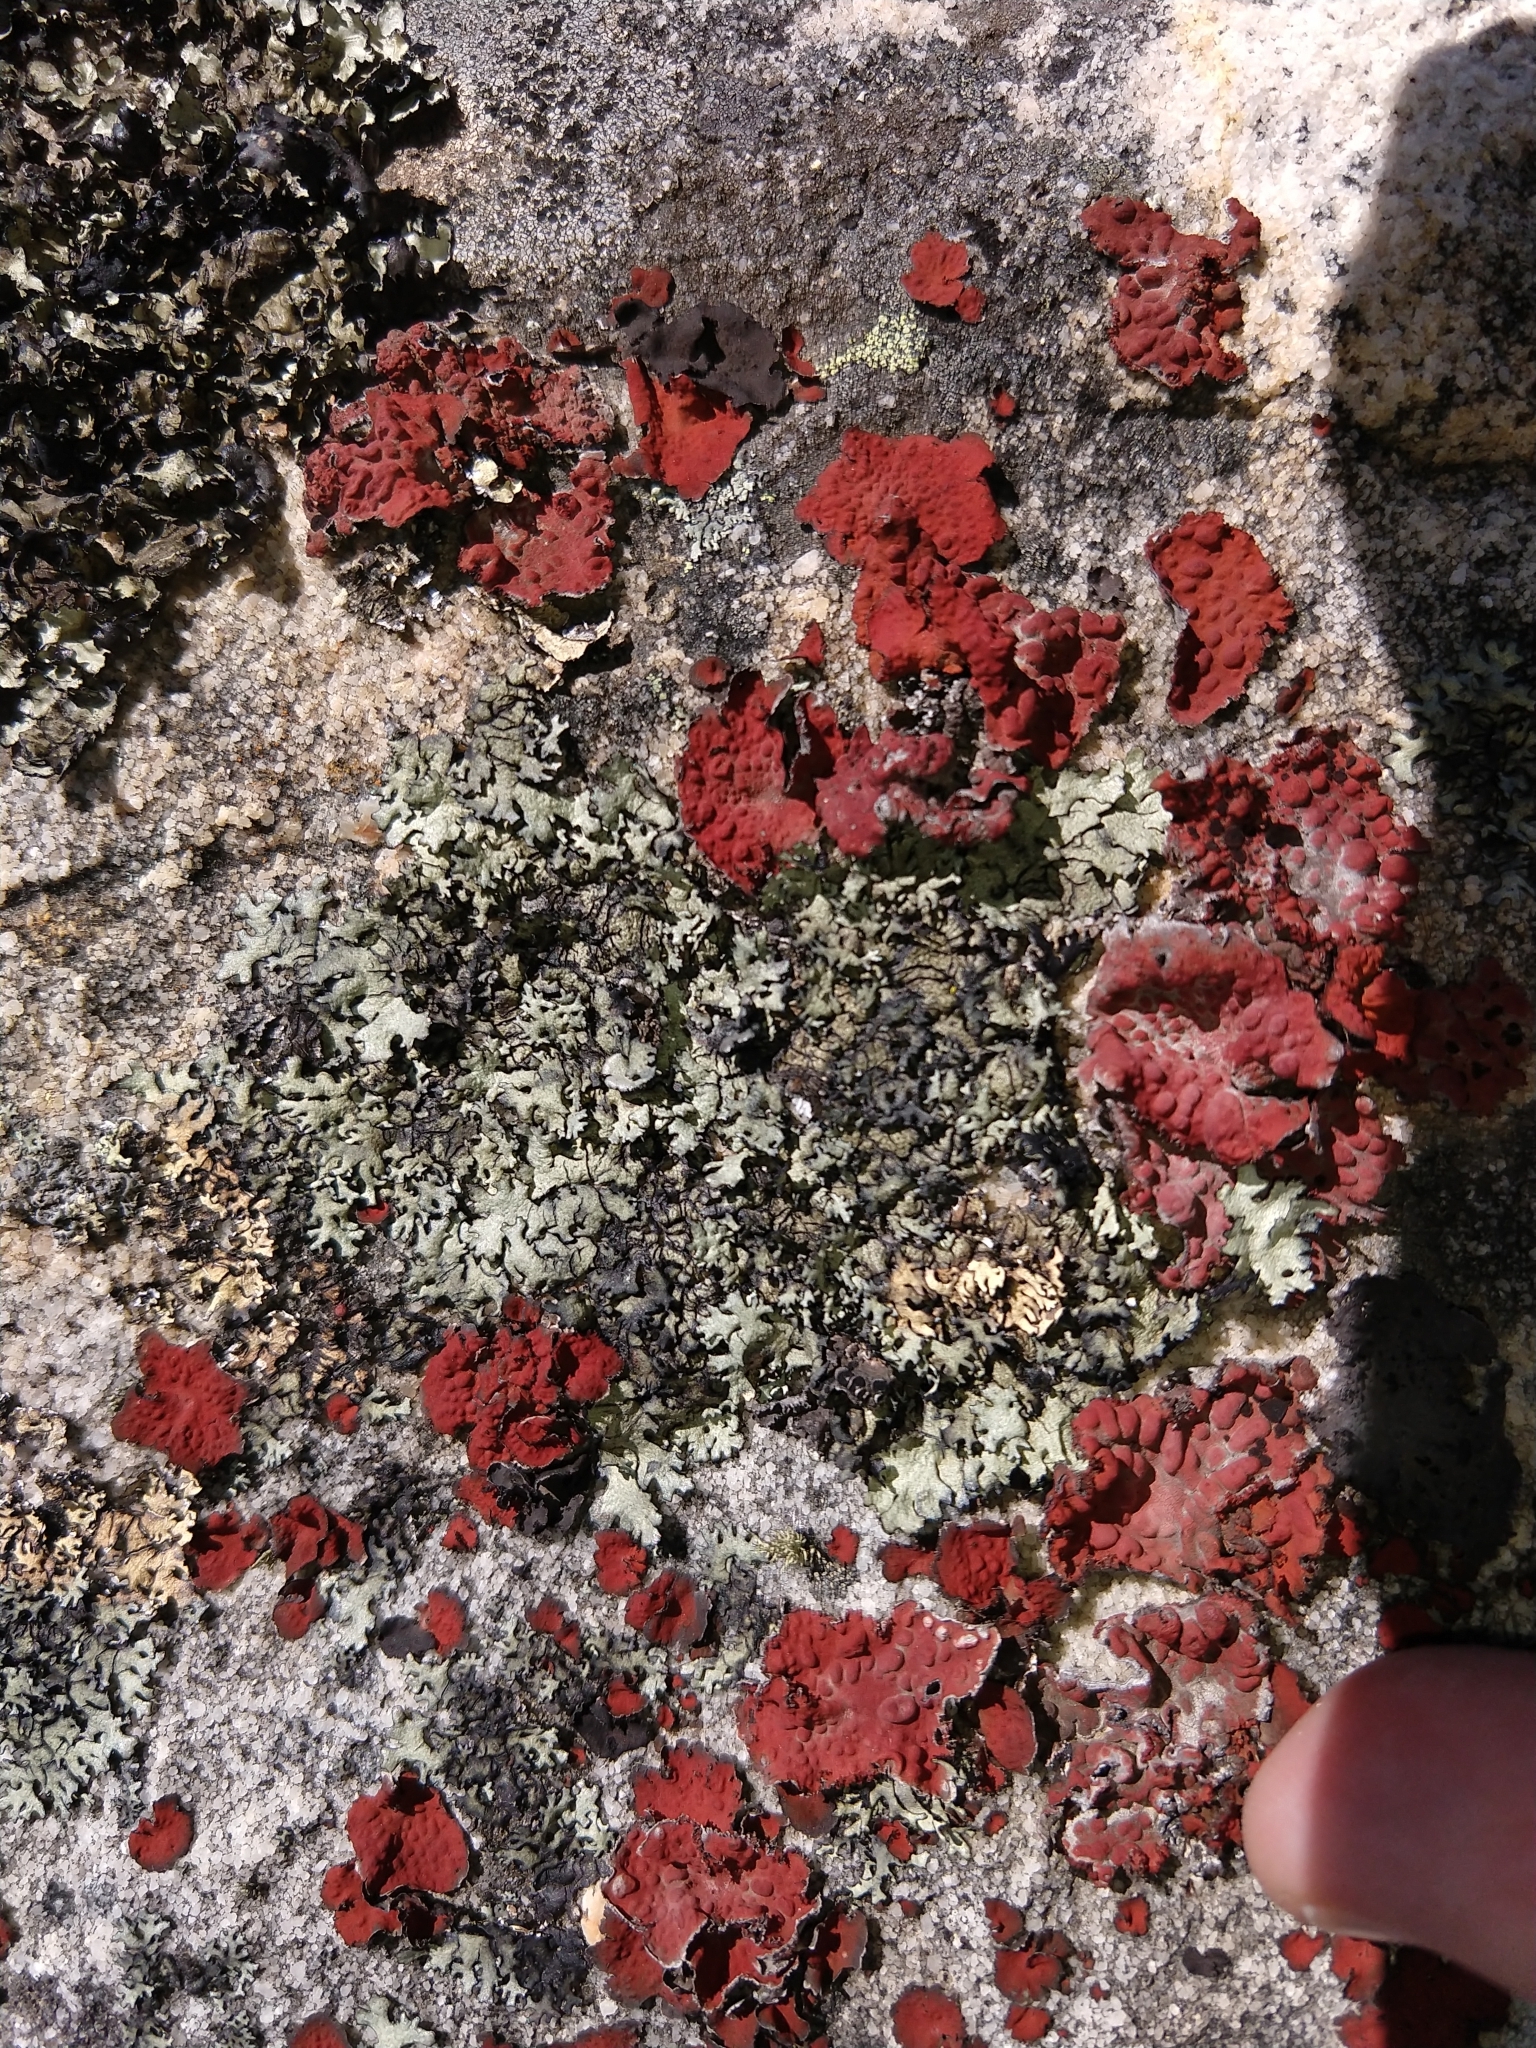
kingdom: Fungi
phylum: Ascomycota
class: Lecanoromycetes
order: Umbilicariales
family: Umbilicariaceae
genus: Lasallia
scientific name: Lasallia rubiginosa
